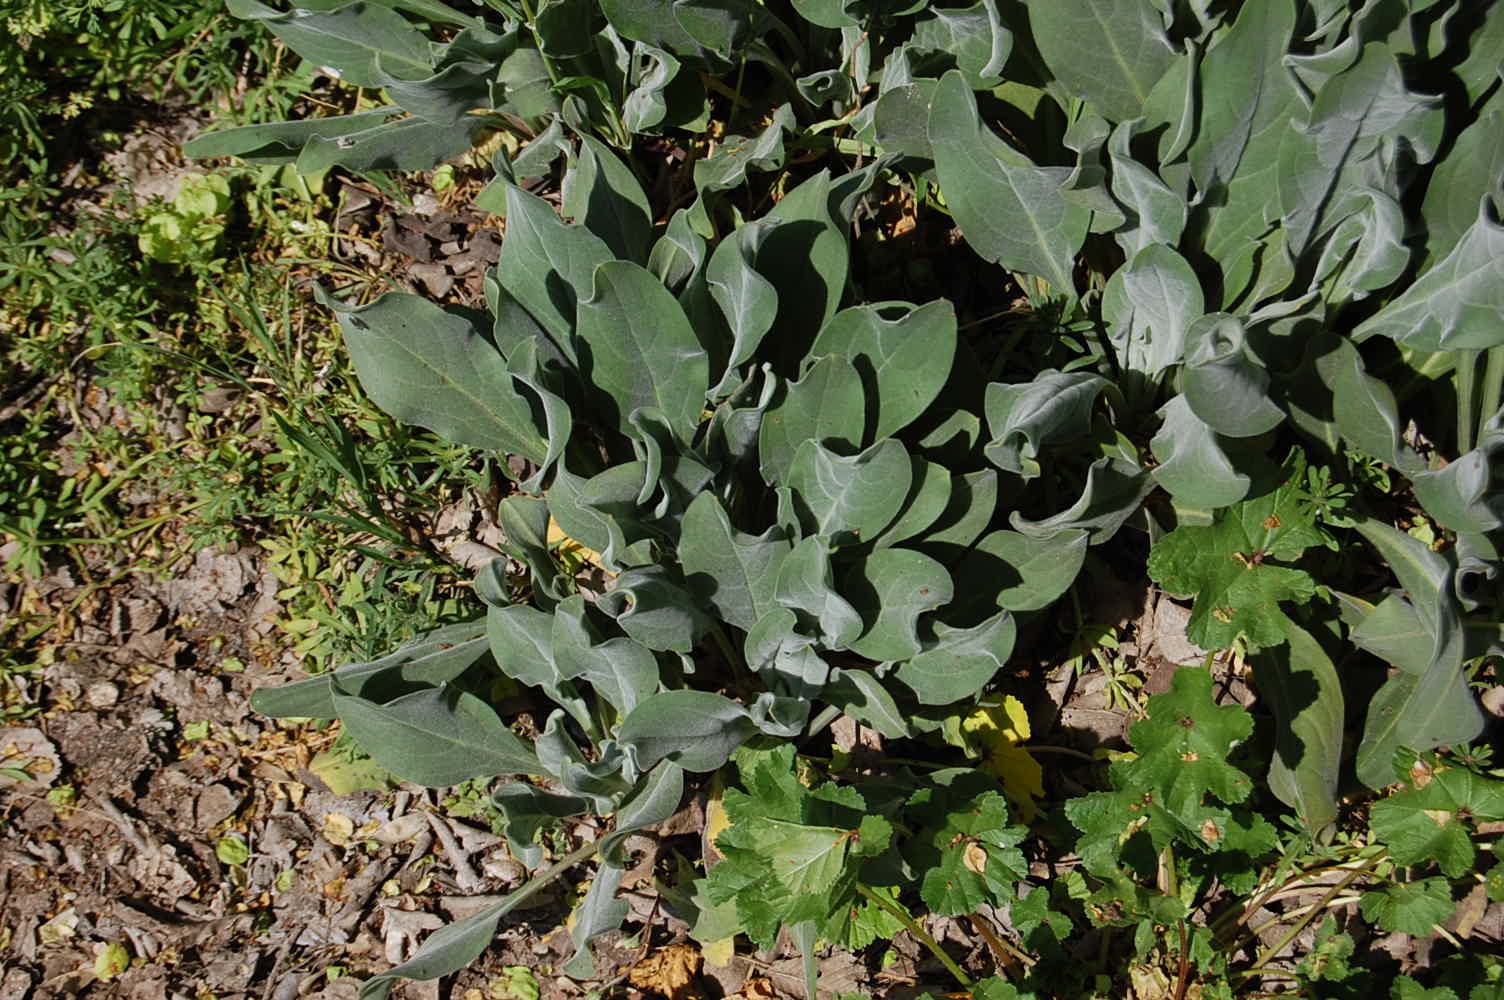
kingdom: Plantae
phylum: Tracheophyta
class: Magnoliopsida
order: Asterales
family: Asteraceae
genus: Centaurea
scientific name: Centaurea jacea
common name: Brown knapweed
